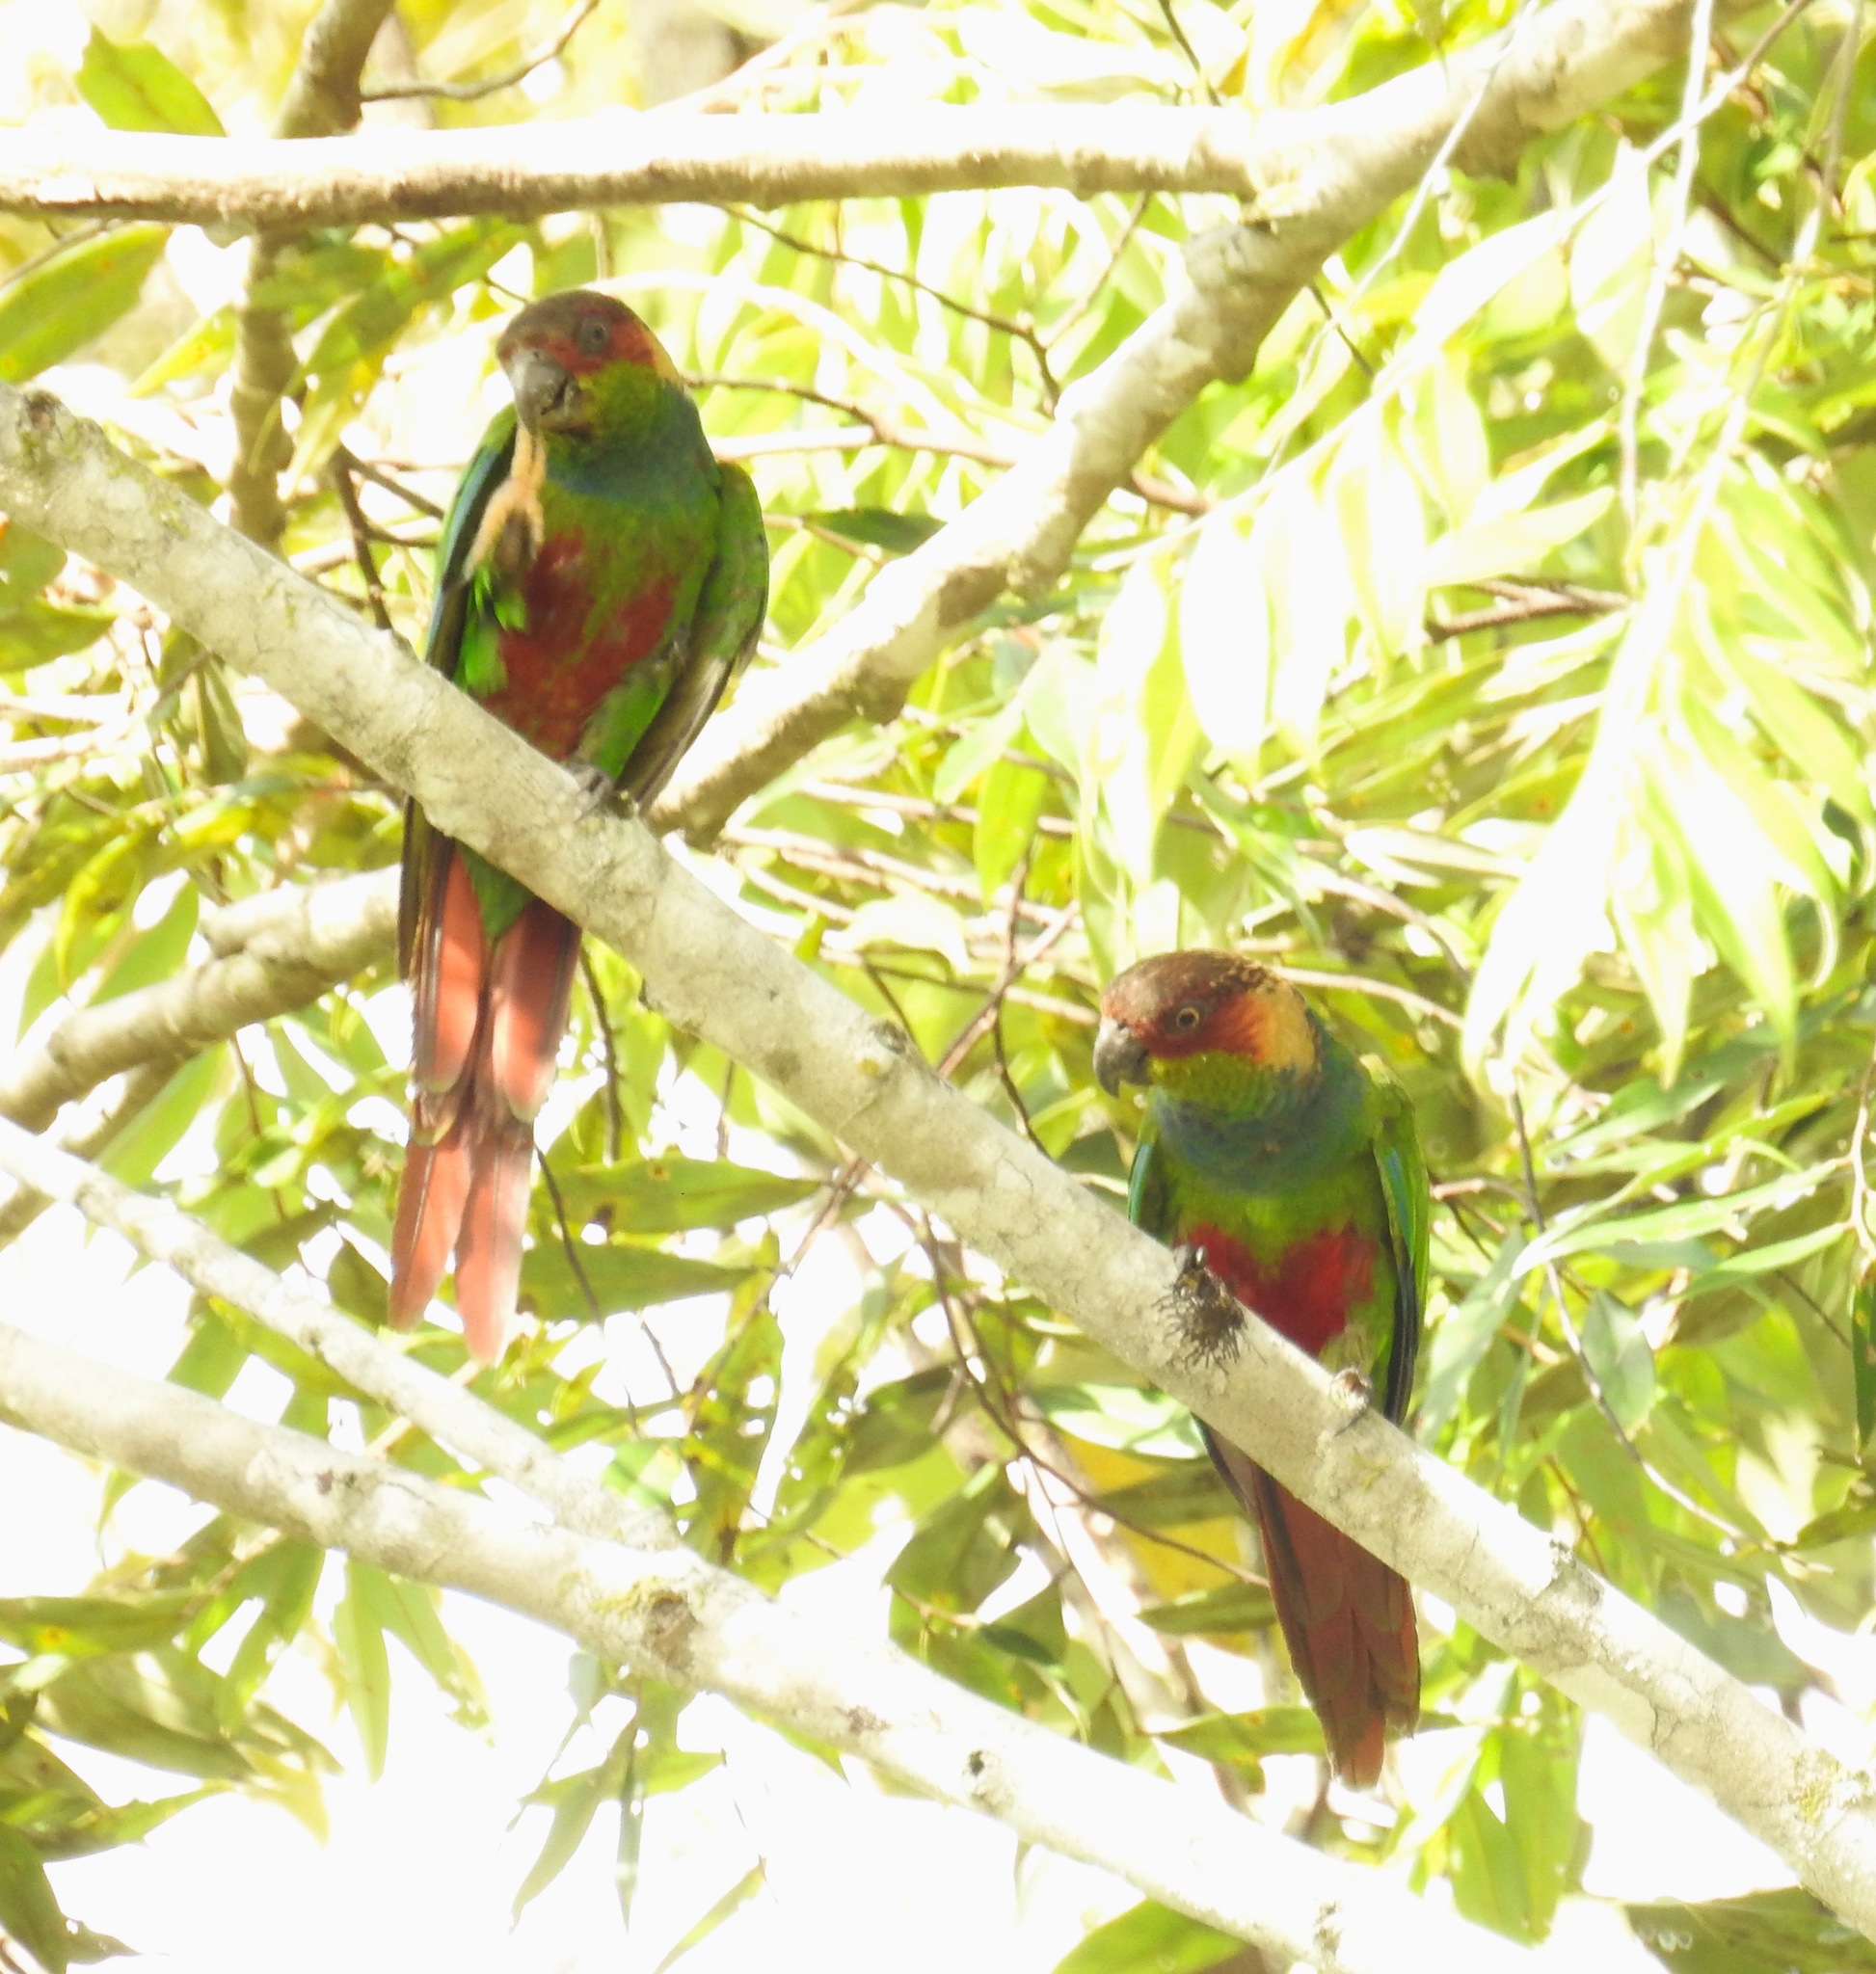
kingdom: Animalia
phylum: Chordata
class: Aves
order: Psittaciformes
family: Psittacidae
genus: Pyrrhura
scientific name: Pyrrhura cruentata
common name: Ochre-marked parakeet
